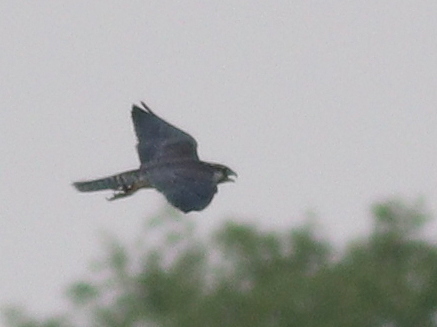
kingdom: Animalia
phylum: Chordata
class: Aves
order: Falconiformes
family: Falconidae
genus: Falco
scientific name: Falco peregrinus
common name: Peregrine falcon
